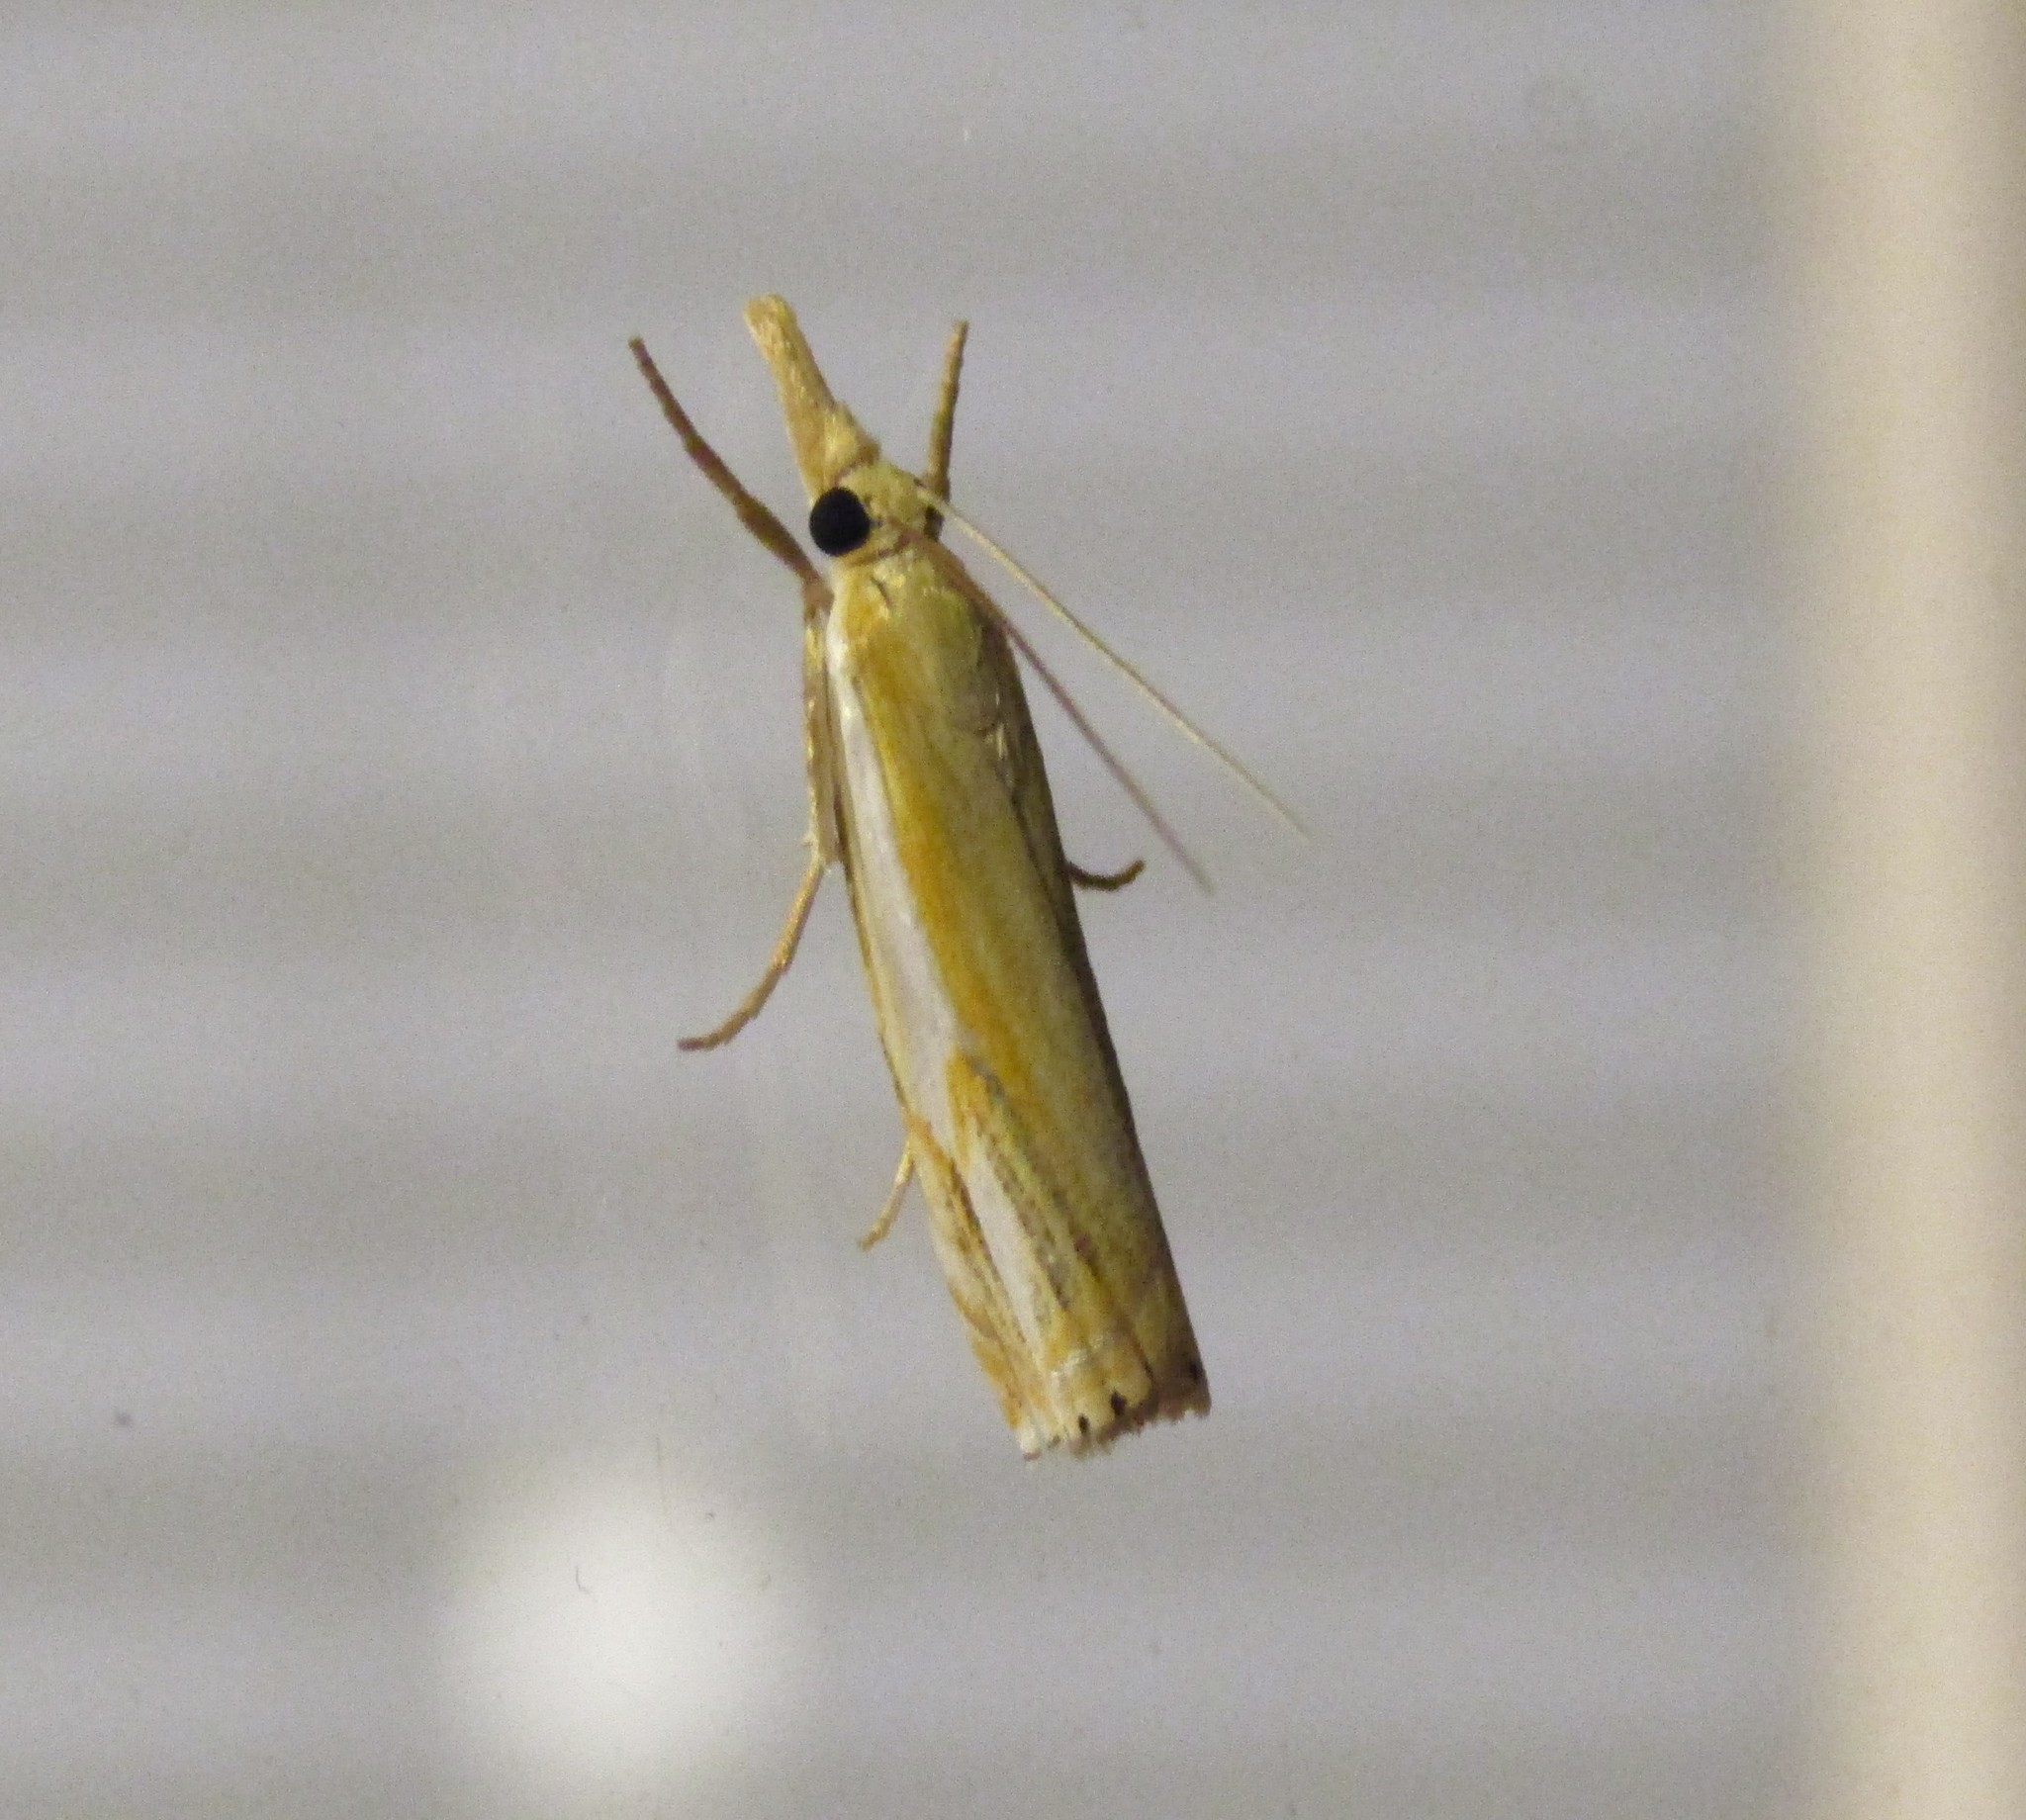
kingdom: Animalia
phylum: Arthropoda
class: Insecta
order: Lepidoptera
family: Crambidae
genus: Crambus
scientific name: Crambus agitatellus
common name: Double-banded grass-veneer
